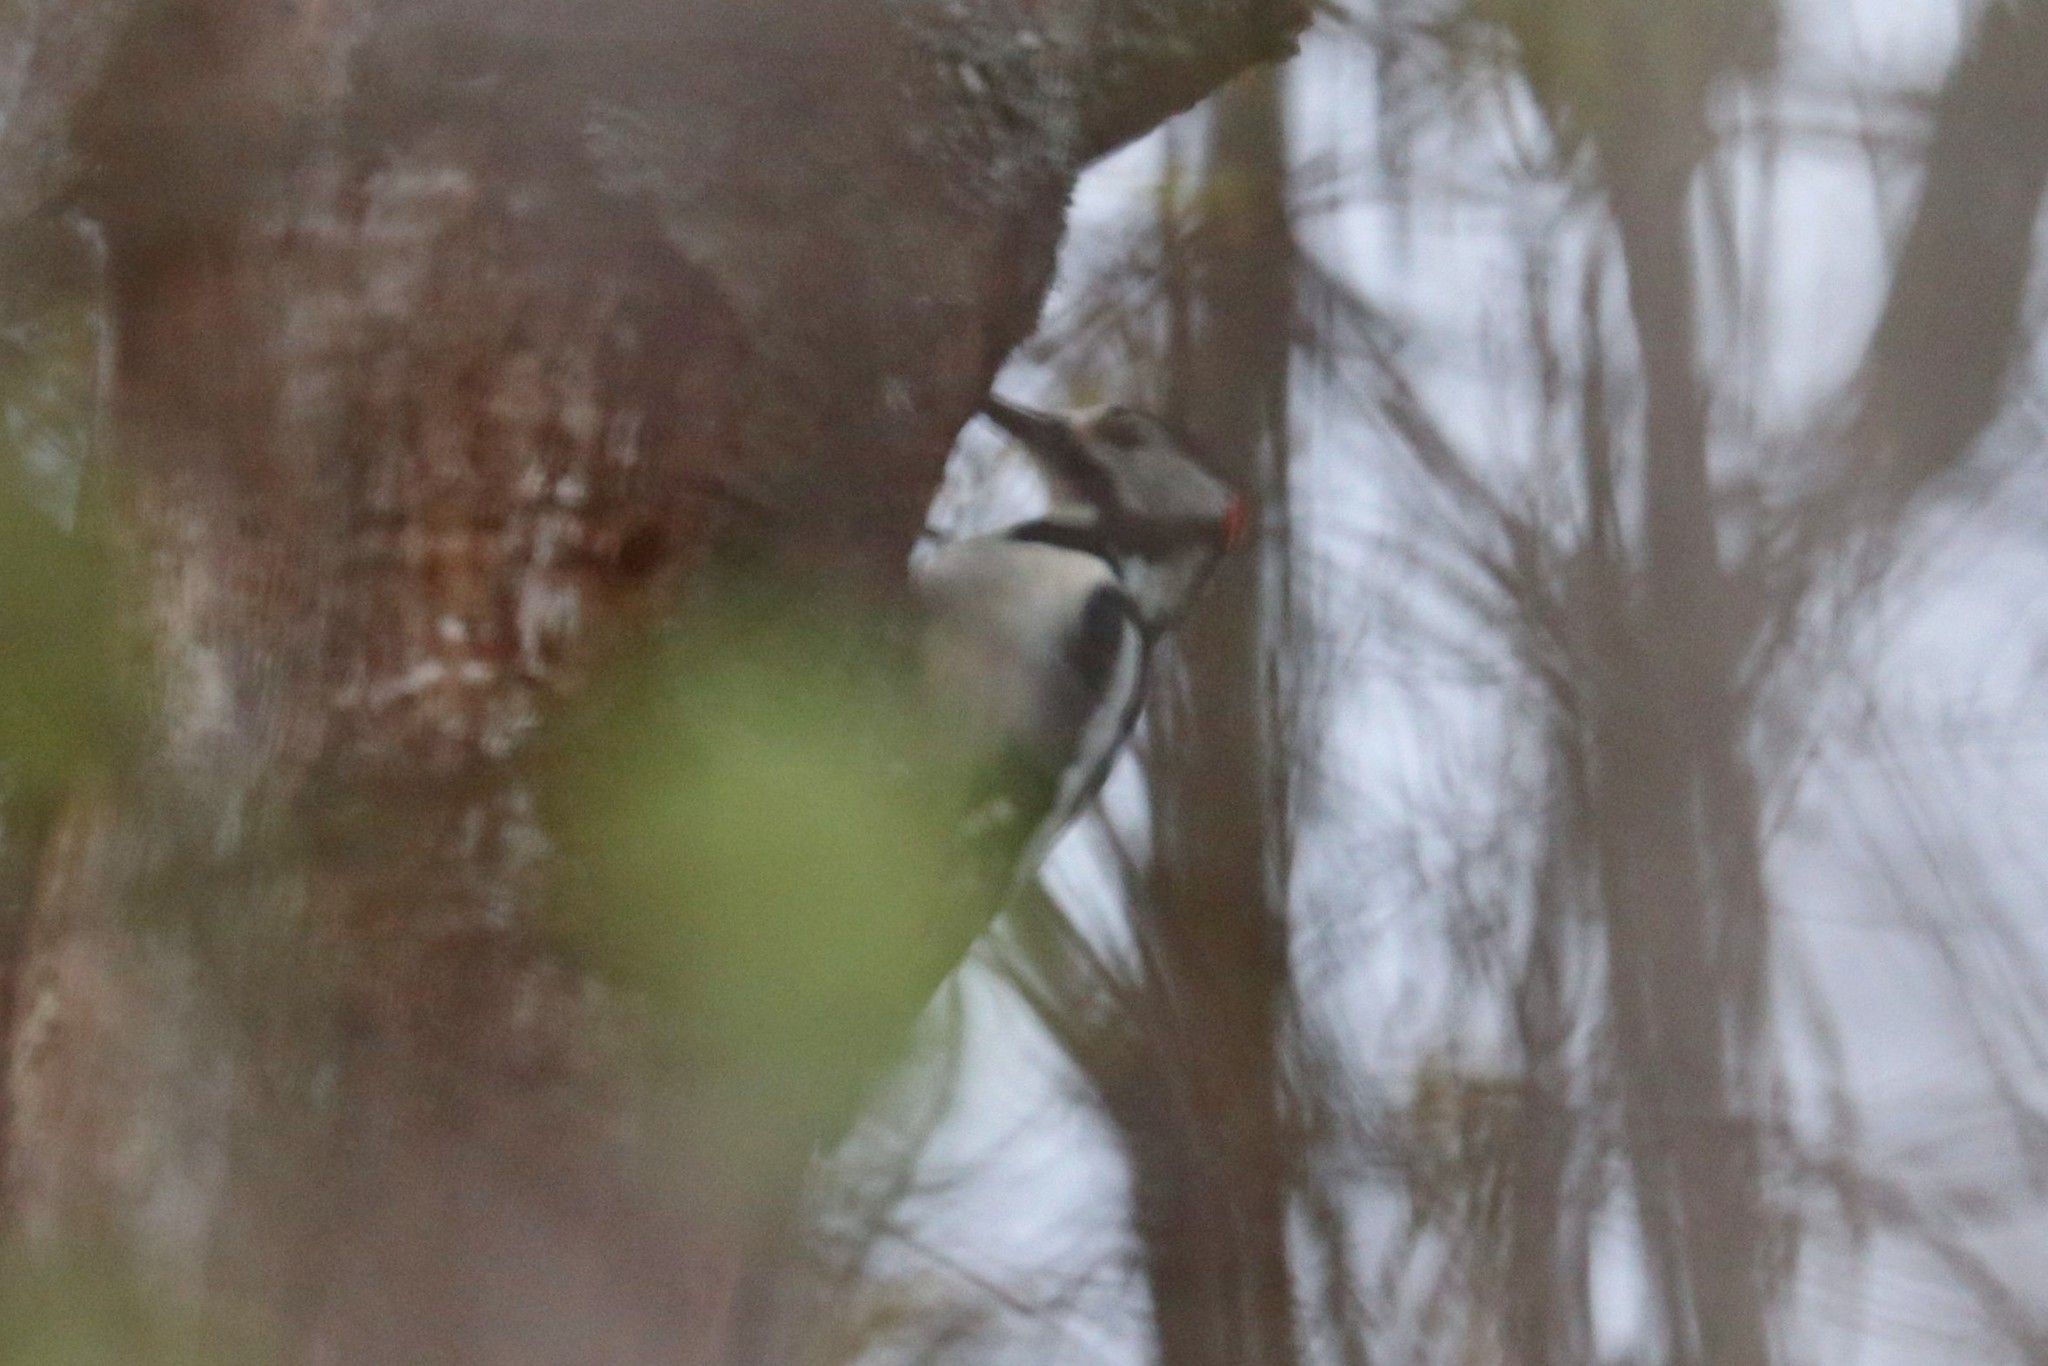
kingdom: Animalia
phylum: Chordata
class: Aves
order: Piciformes
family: Picidae
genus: Dendrocopos
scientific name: Dendrocopos major
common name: Great spotted woodpecker
